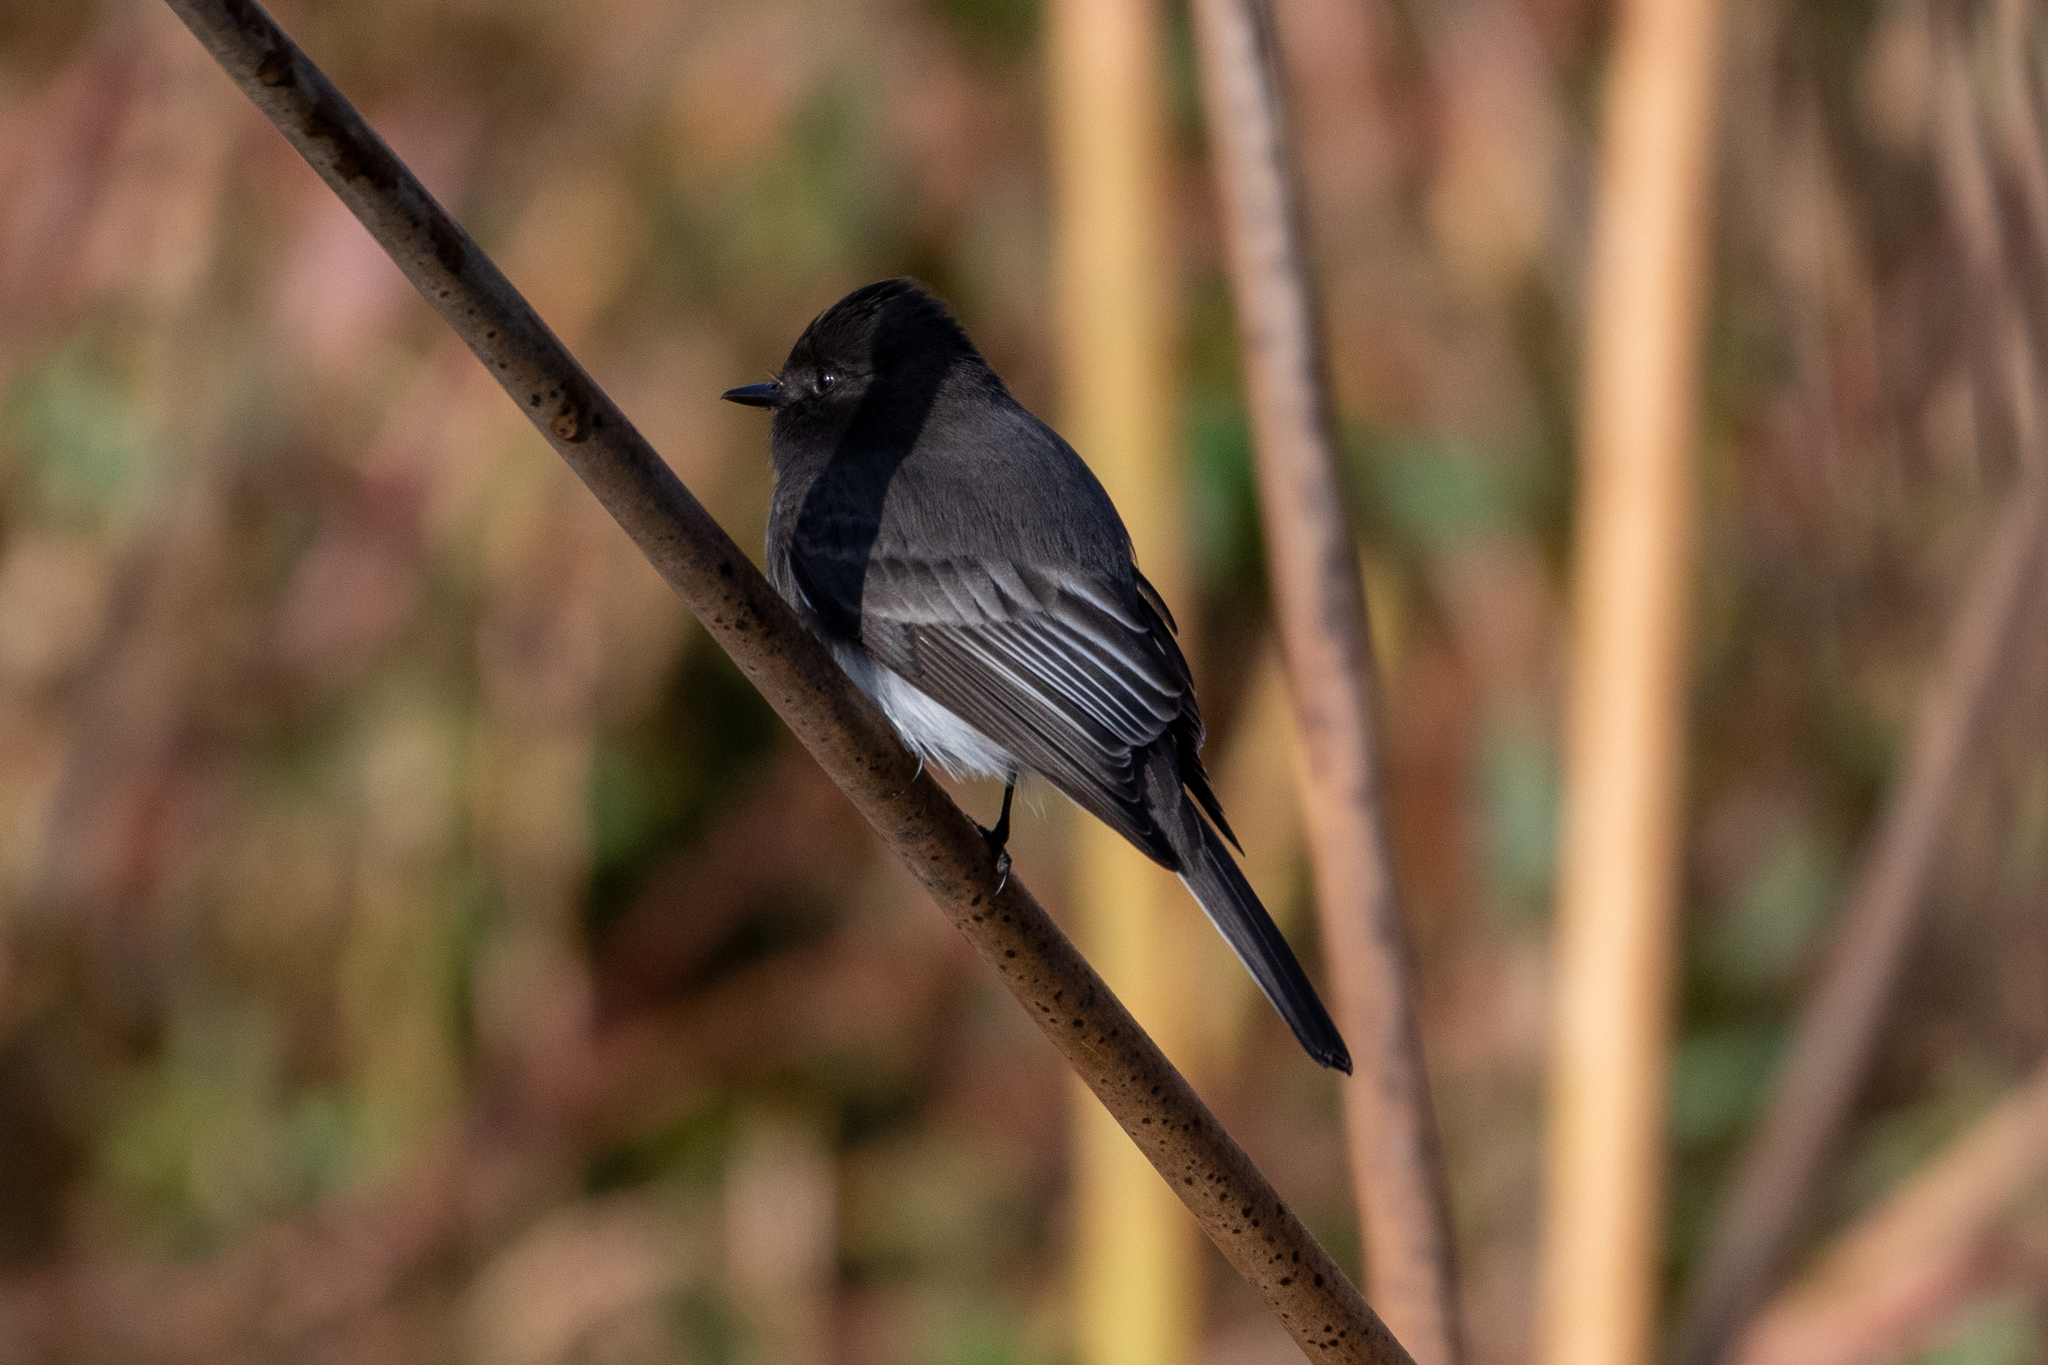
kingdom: Animalia
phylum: Chordata
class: Aves
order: Passeriformes
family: Tyrannidae
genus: Sayornis
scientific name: Sayornis nigricans
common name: Black phoebe
